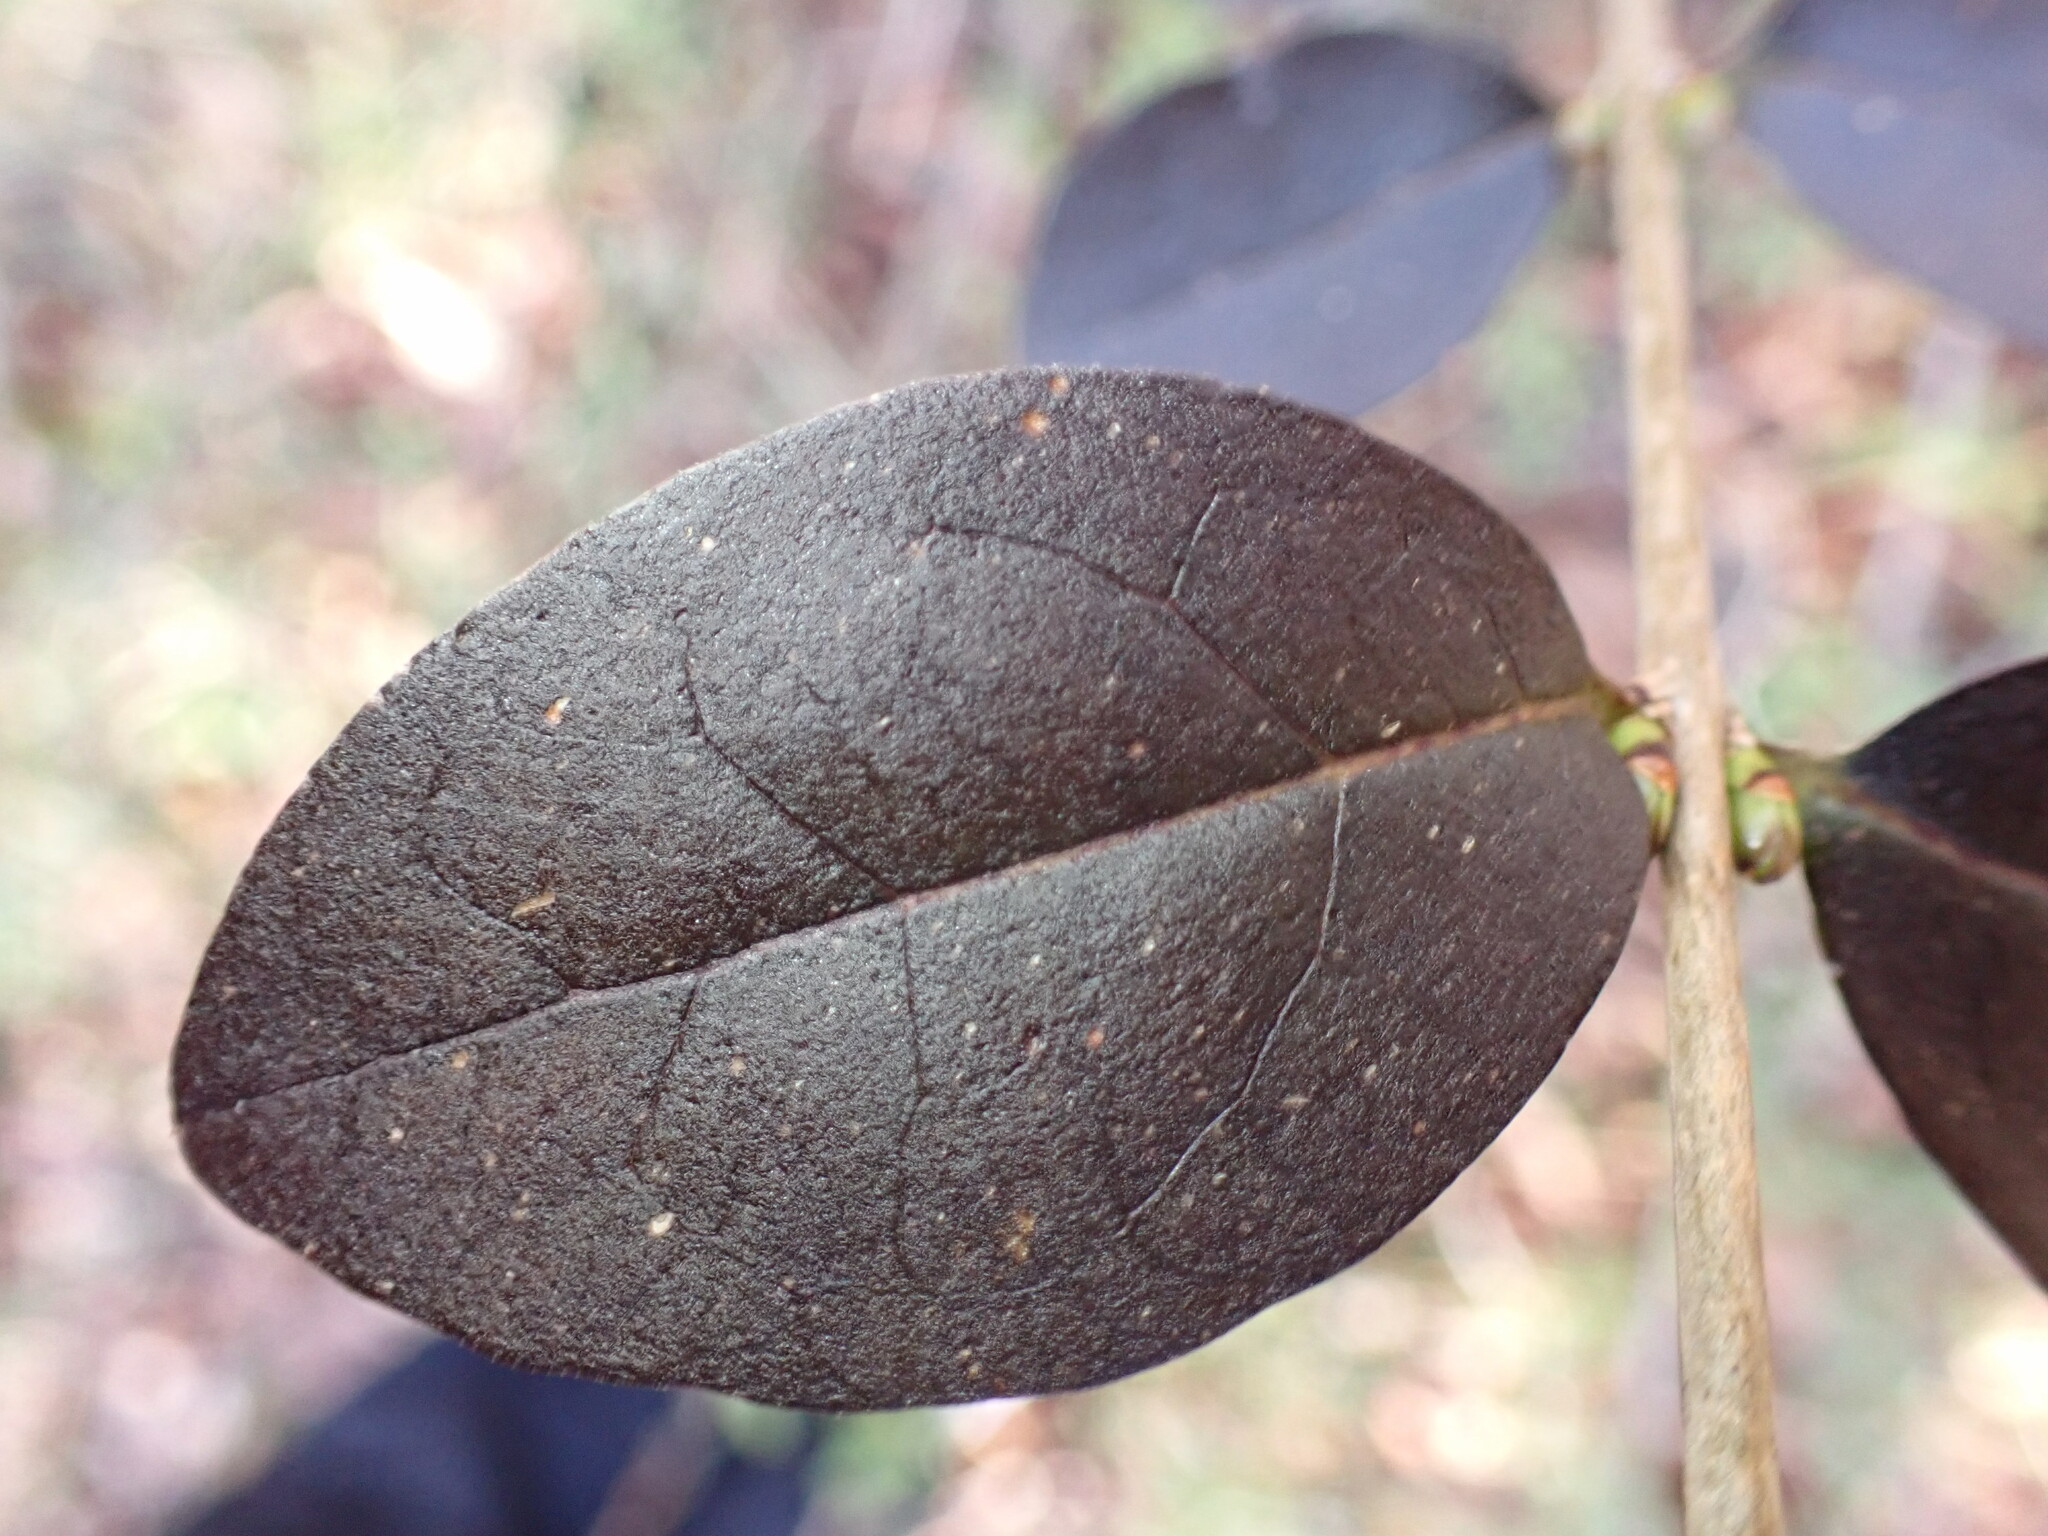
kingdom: Plantae
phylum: Tracheophyta
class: Magnoliopsida
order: Lamiales
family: Oleaceae
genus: Ligustrum
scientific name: Ligustrum ovalifolium
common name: California privet
